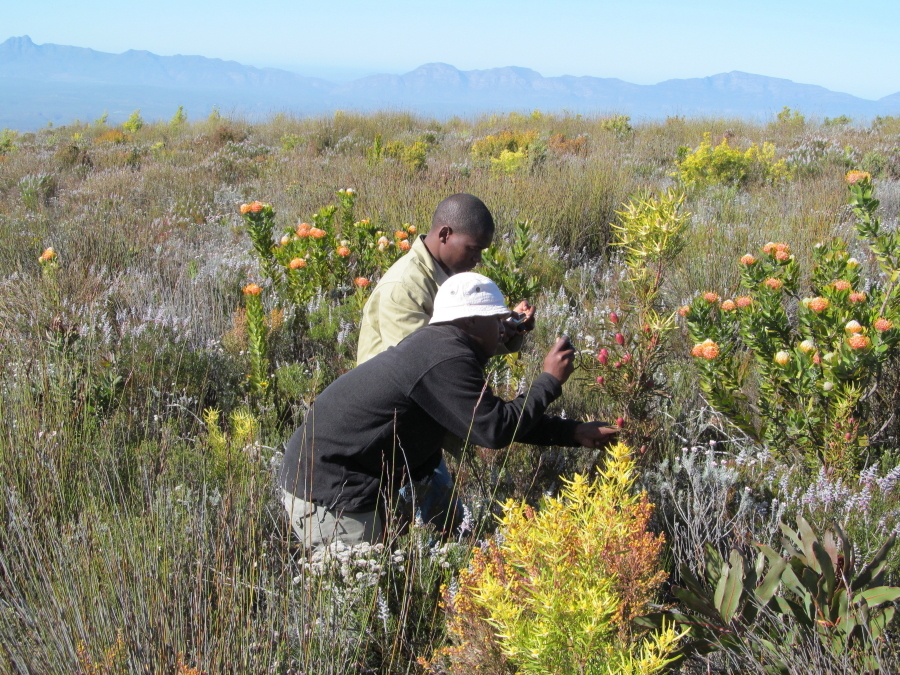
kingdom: Plantae
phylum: Tracheophyta
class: Magnoliopsida
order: Proteales
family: Proteaceae
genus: Leucospermum
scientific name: Leucospermum pluridens
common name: Robinson pincushion
